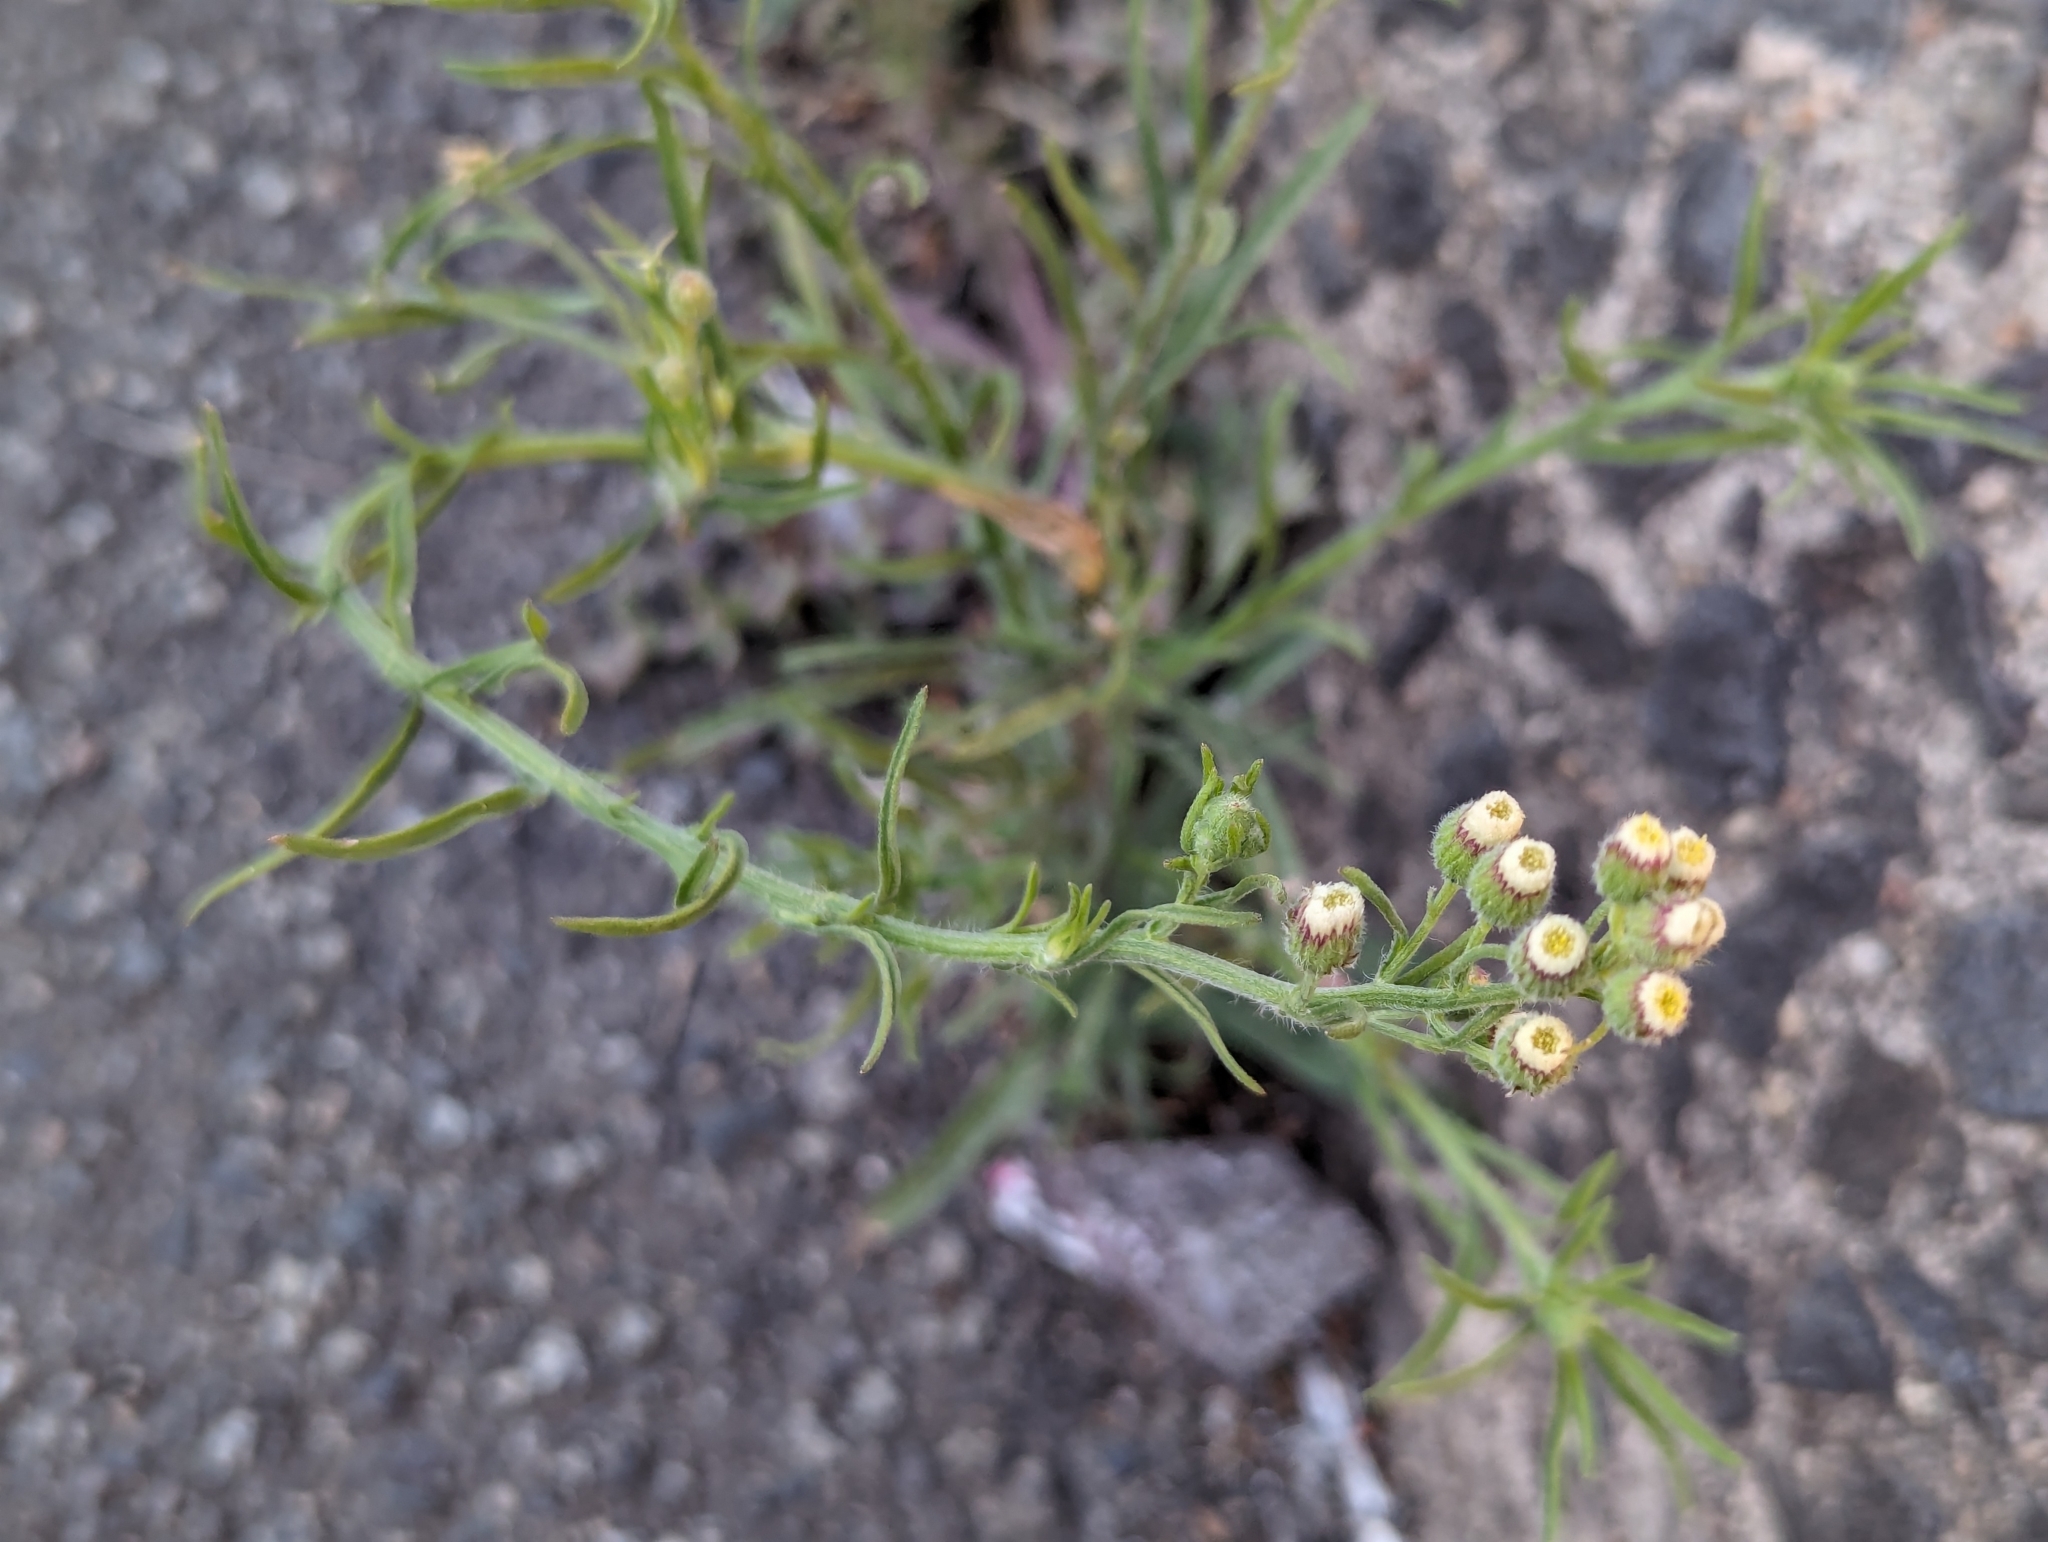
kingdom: Plantae
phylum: Tracheophyta
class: Magnoliopsida
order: Asterales
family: Asteraceae
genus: Erigeron
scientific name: Erigeron bonariensis
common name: Argentine fleabane
